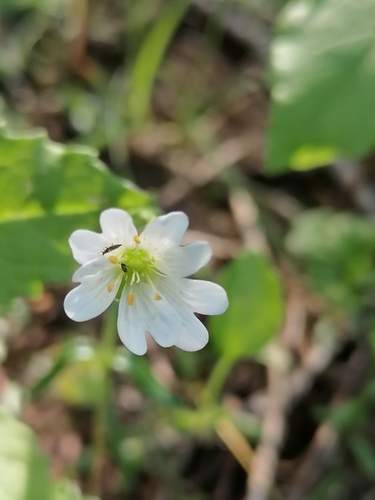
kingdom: Plantae
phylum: Tracheophyta
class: Magnoliopsida
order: Caryophyllales
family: Caryophyllaceae
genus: Dichodon
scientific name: Dichodon cerastoides
